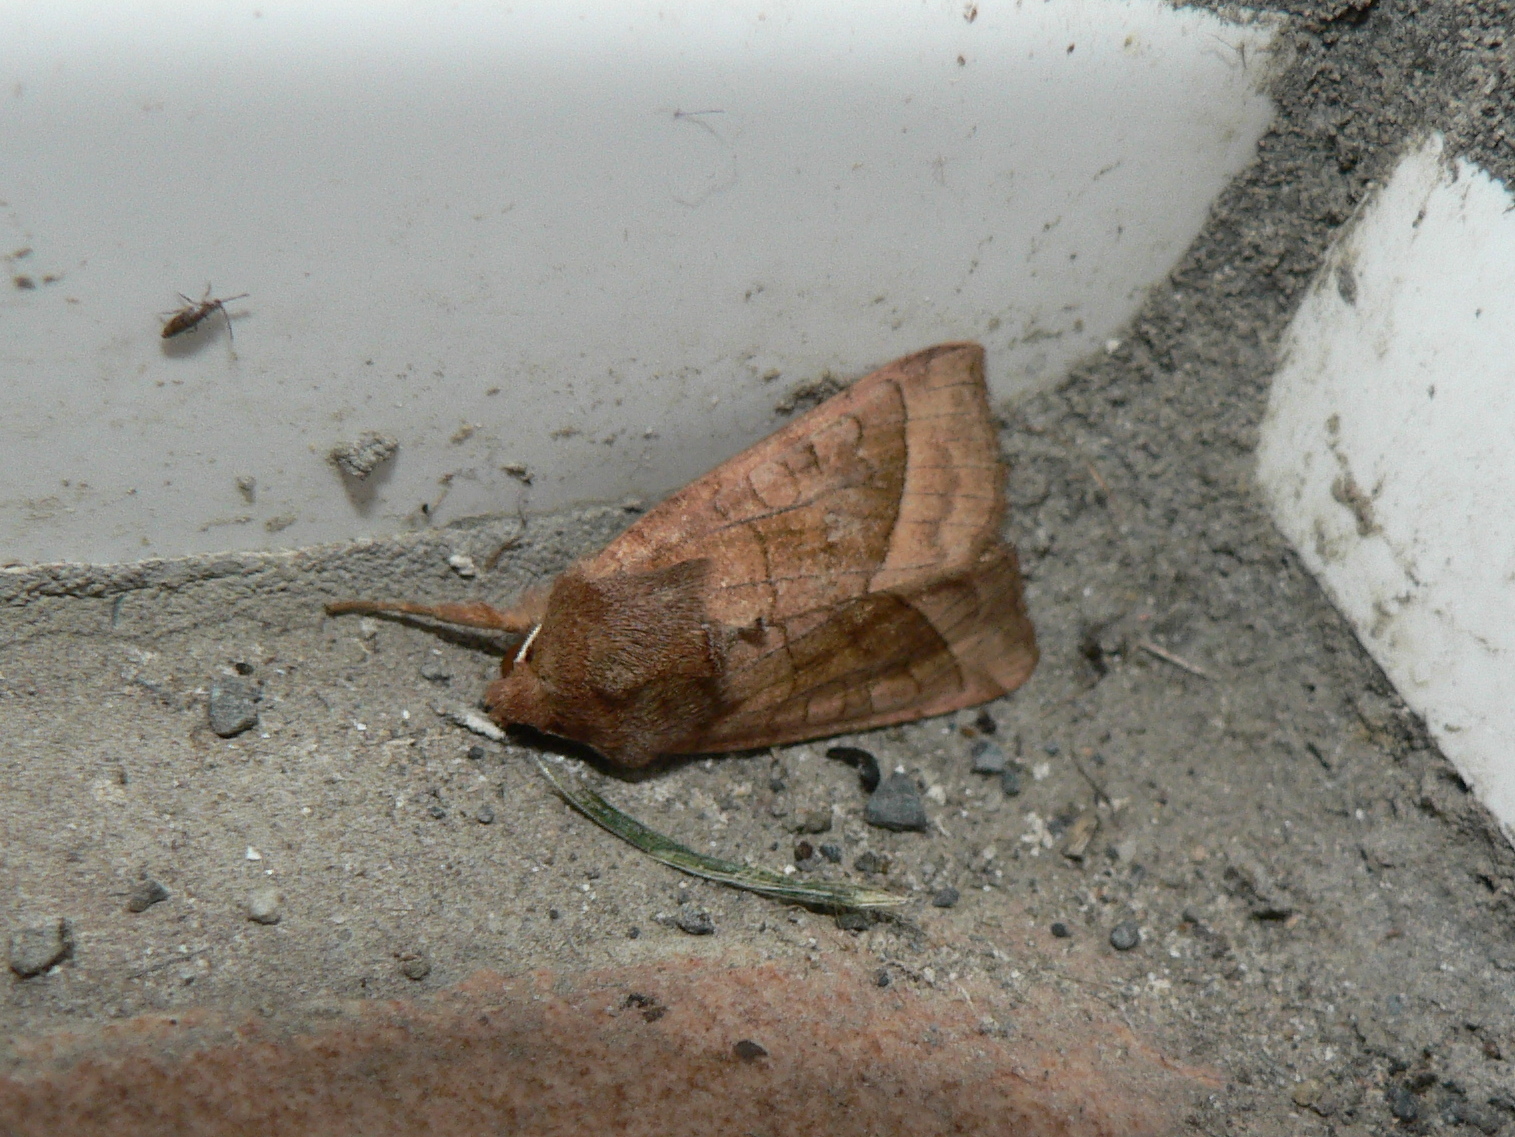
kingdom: Animalia
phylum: Arthropoda
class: Insecta
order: Lepidoptera
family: Noctuidae
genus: Hydraecia
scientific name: Hydraecia micacea
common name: Rosy rustic
